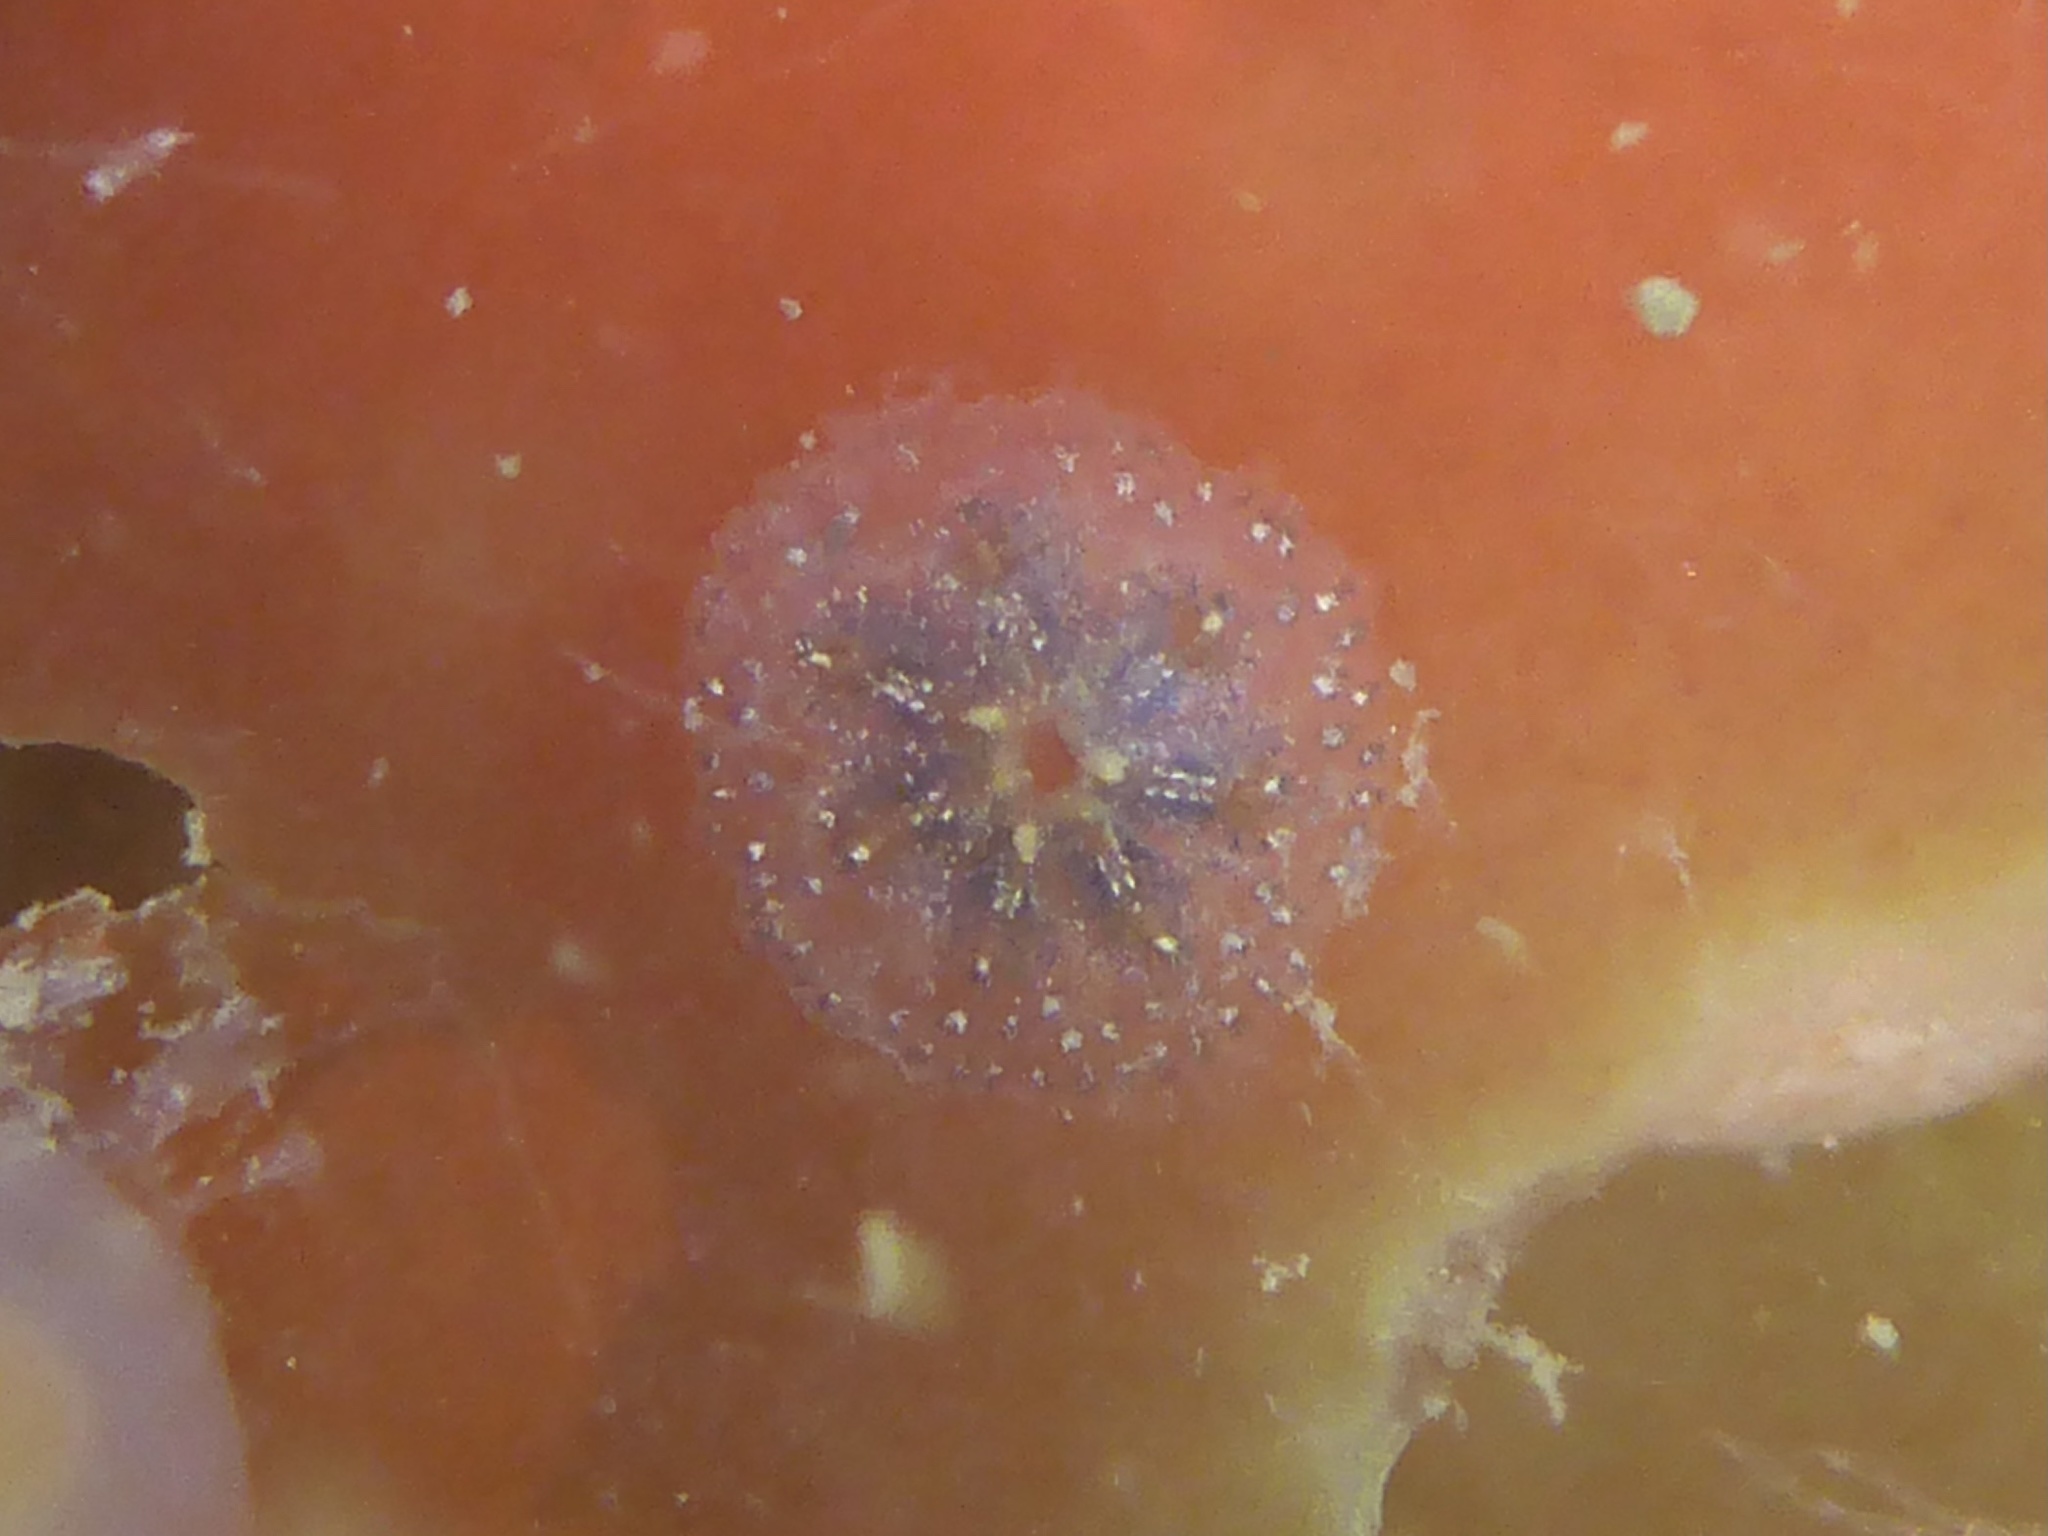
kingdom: Animalia
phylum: Chordata
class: Ascidiacea
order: Stolidobranchia
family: Styelidae
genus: Botryllus
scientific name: Botryllus schlosseri
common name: Golden star tunicate
